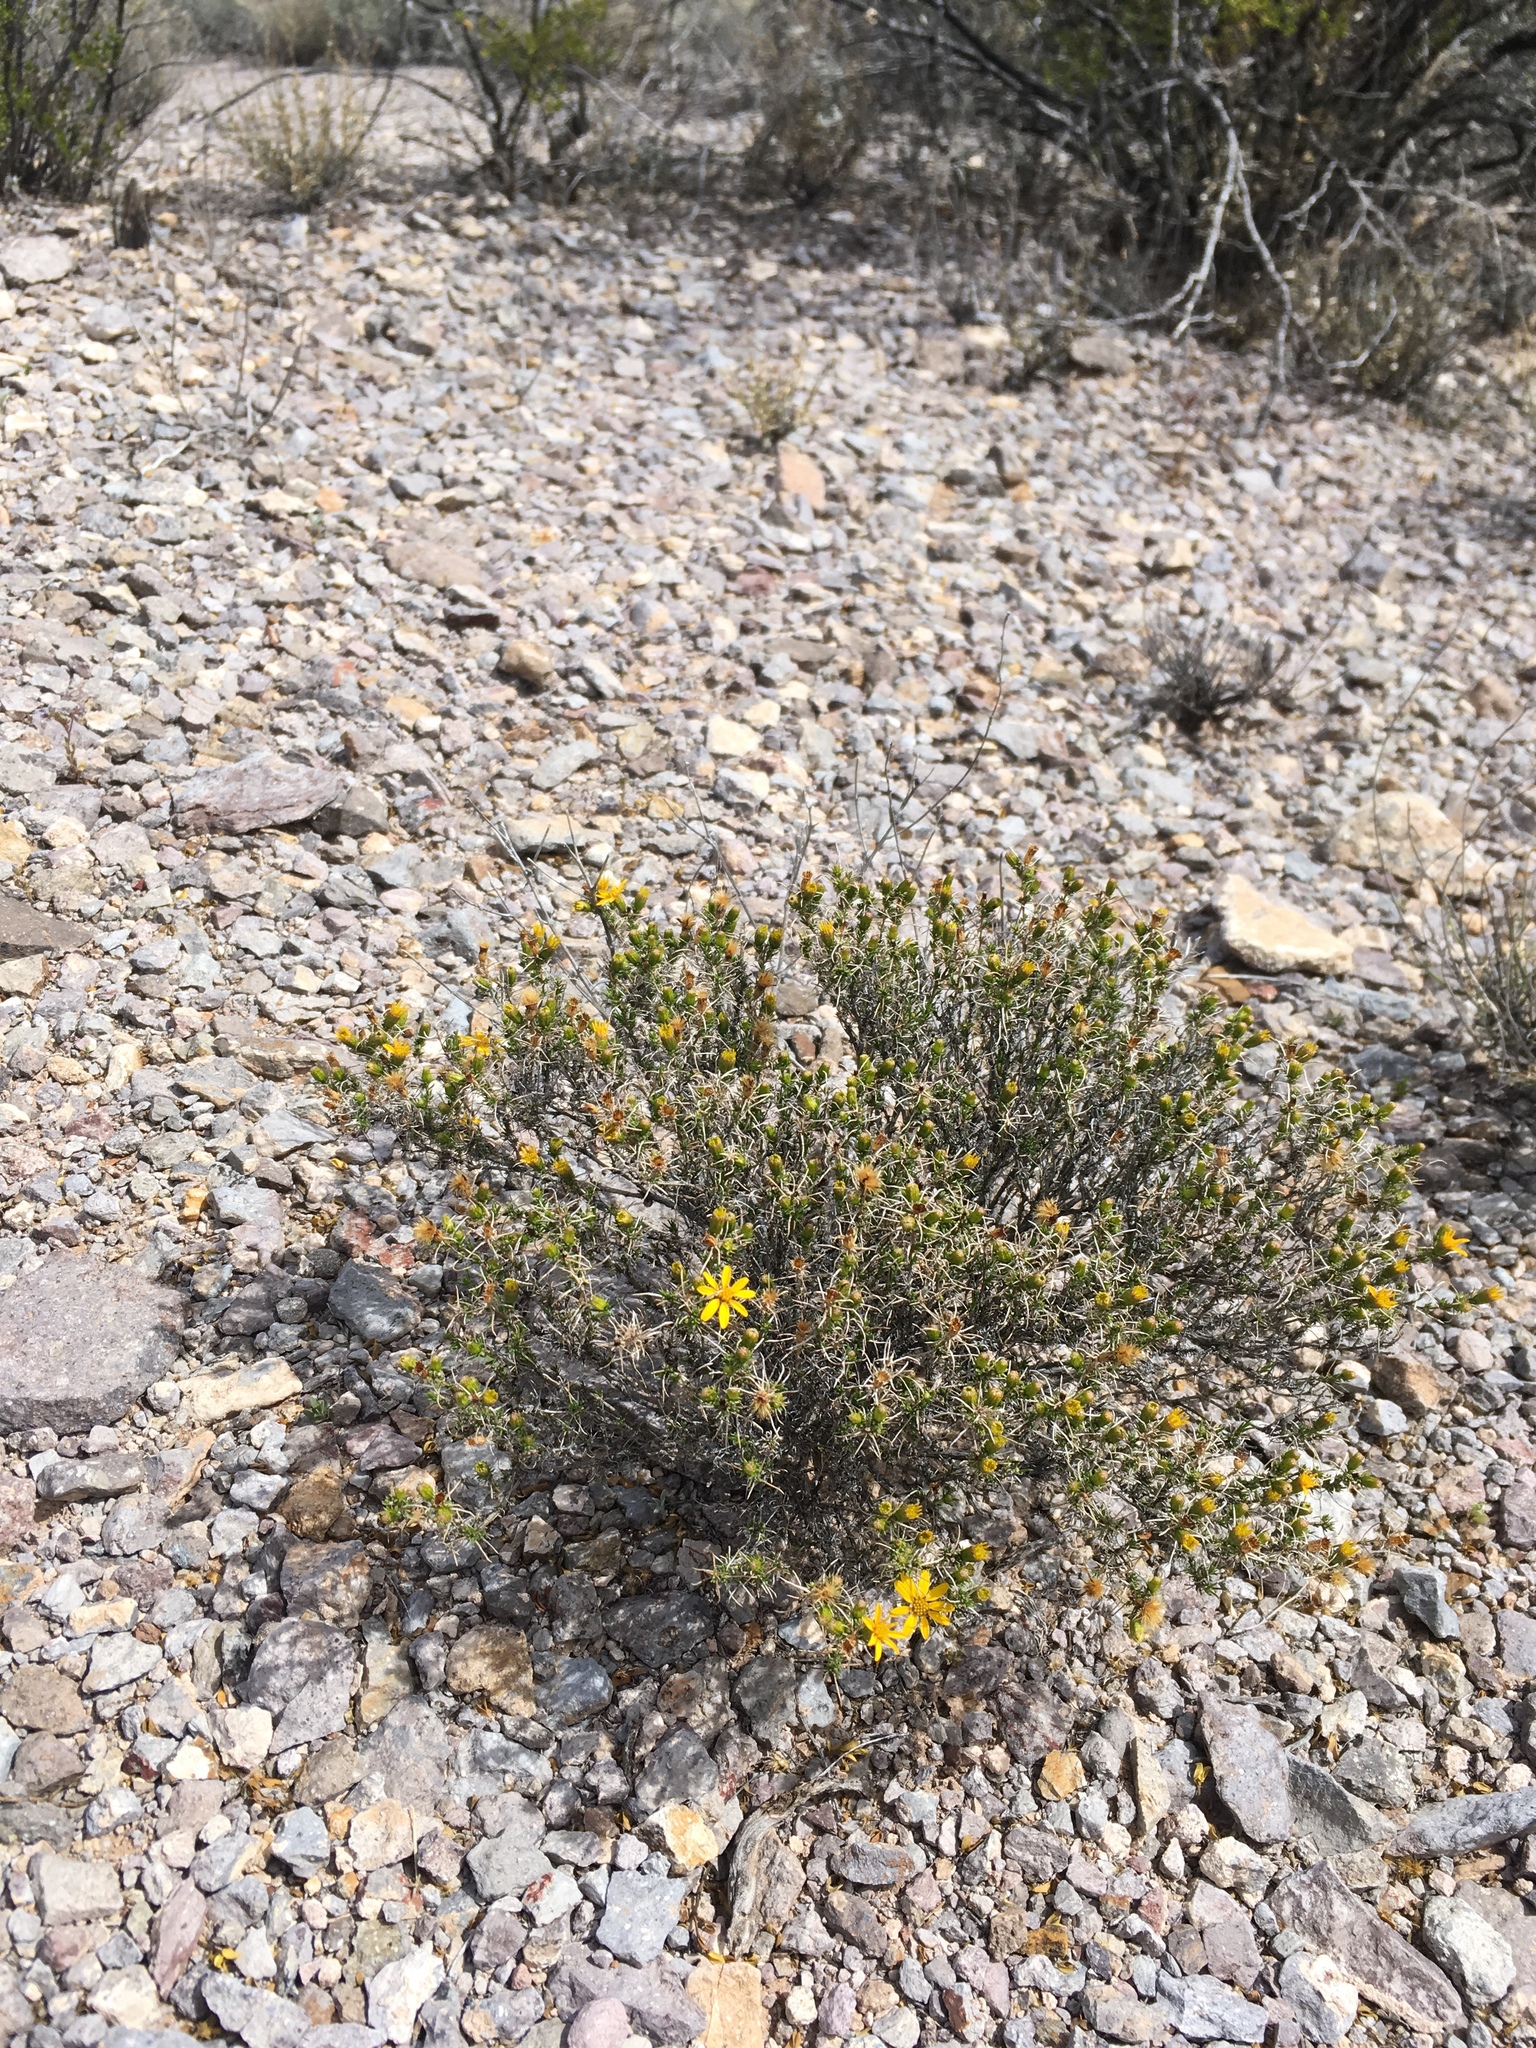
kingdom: Plantae
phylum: Tracheophyta
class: Magnoliopsida
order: Asterales
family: Asteraceae
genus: Thymophylla
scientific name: Thymophylla acerosa
